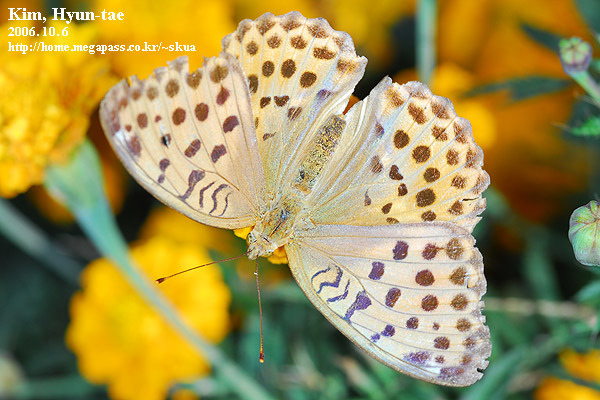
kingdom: Animalia
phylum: Arthropoda
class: Insecta
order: Lepidoptera
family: Nymphalidae
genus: Argyronome
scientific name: Argyronome laodice
